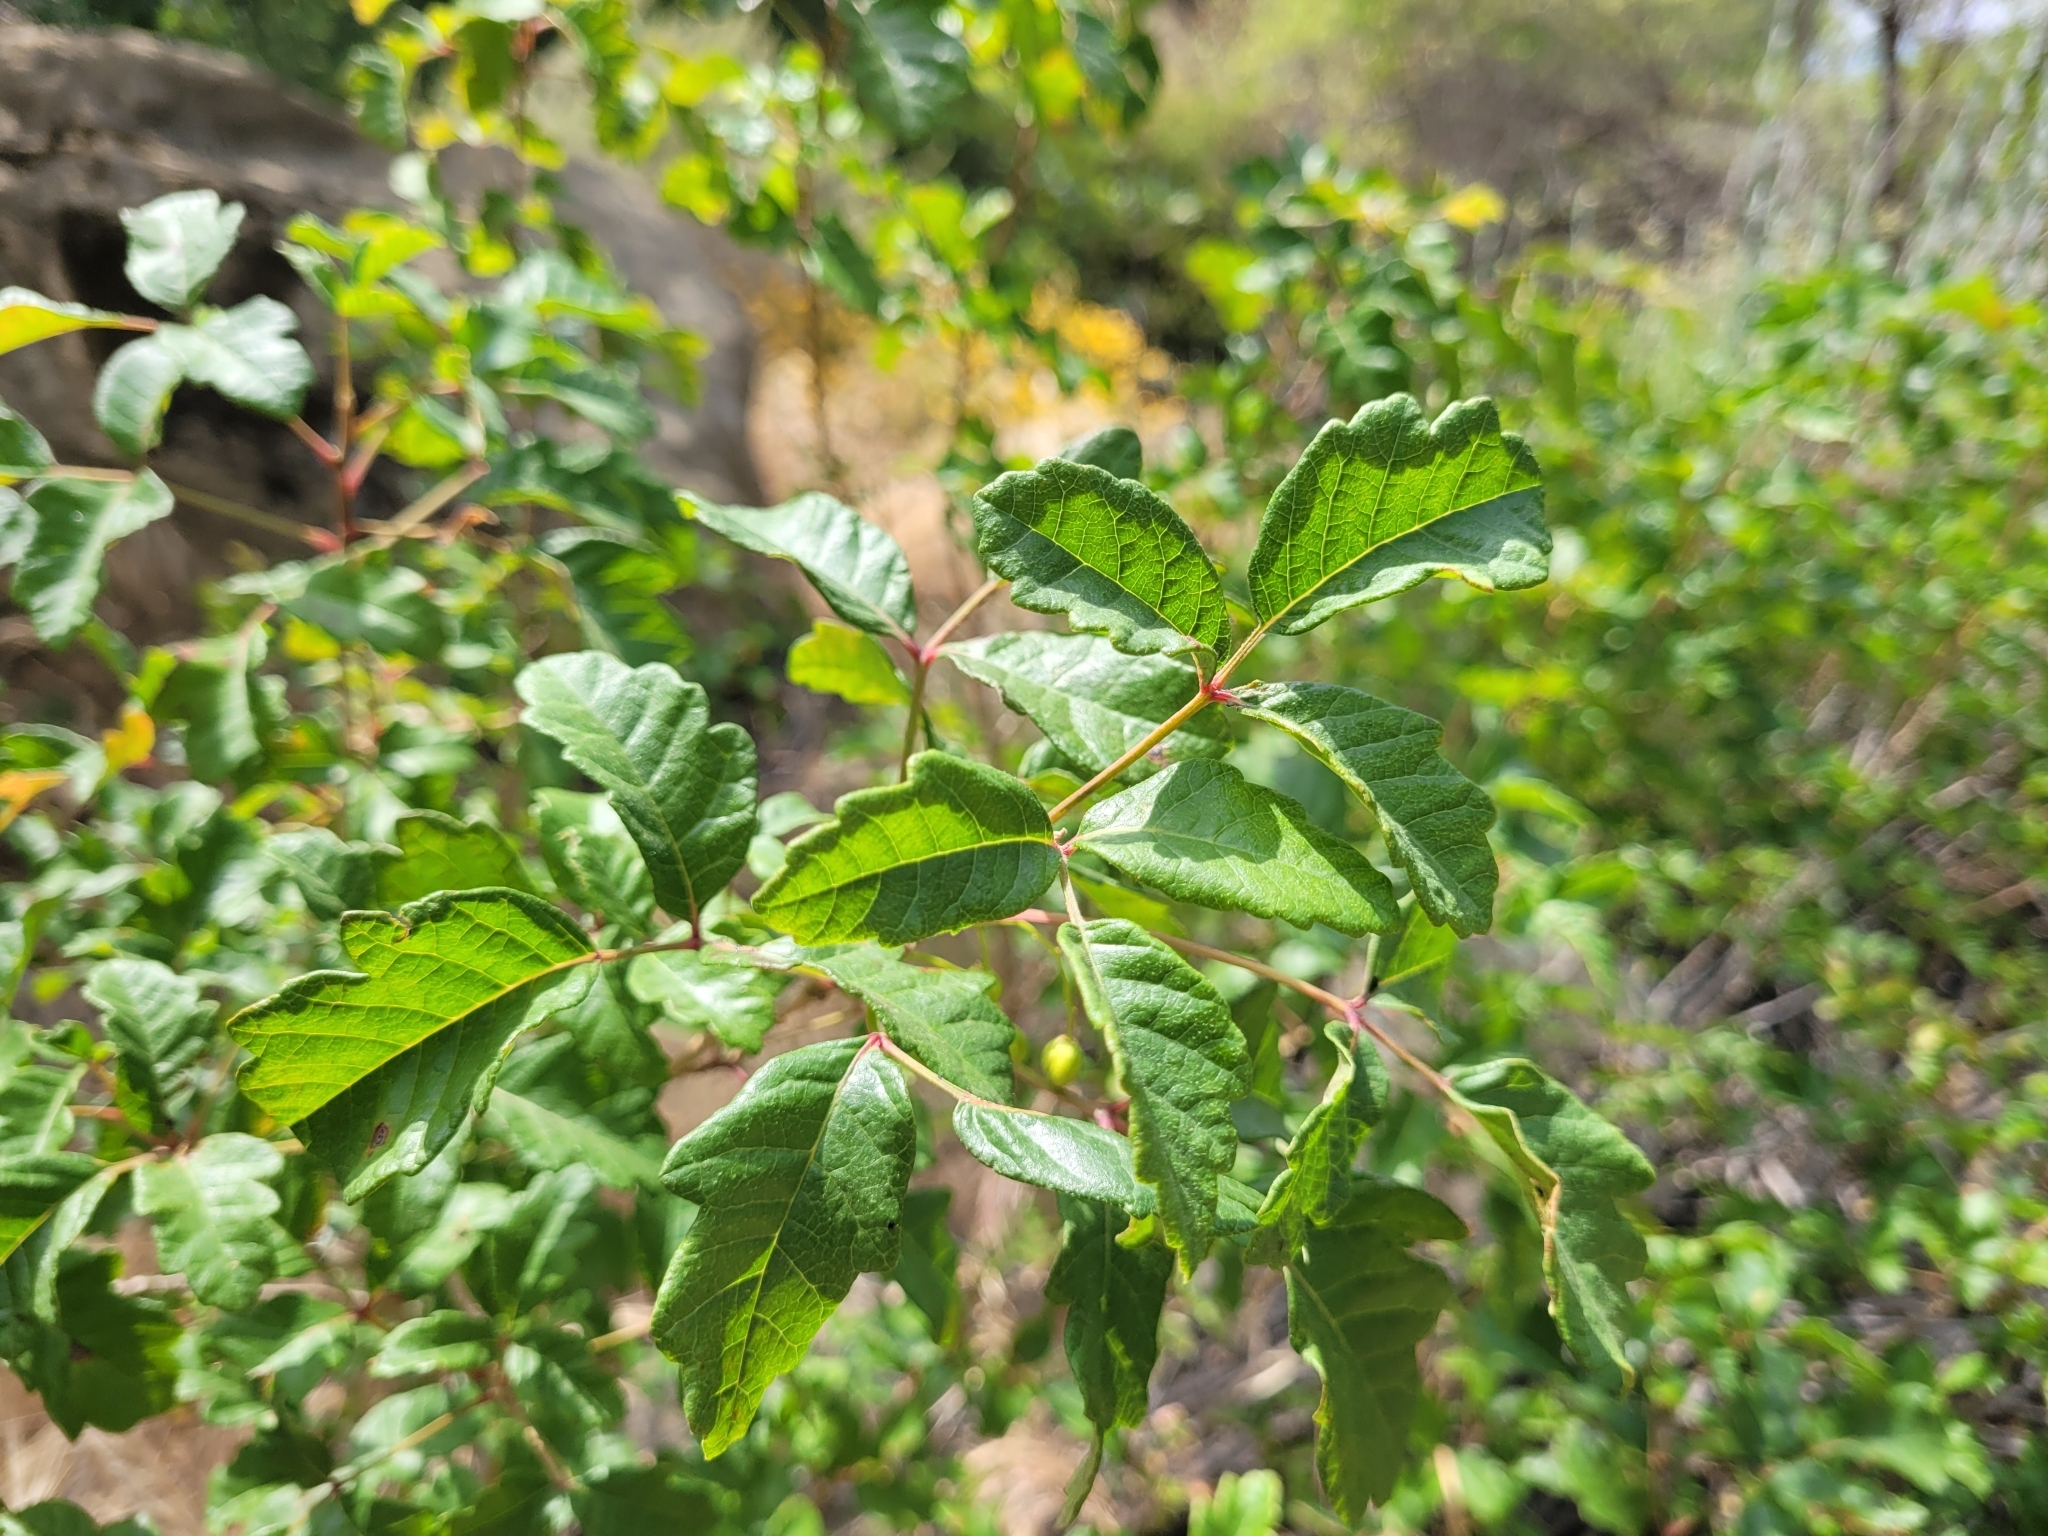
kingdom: Plantae
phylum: Tracheophyta
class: Magnoliopsida
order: Sapindales
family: Anacardiaceae
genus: Toxicodendron
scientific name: Toxicodendron diversilobum
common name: Pacific poison-oak
